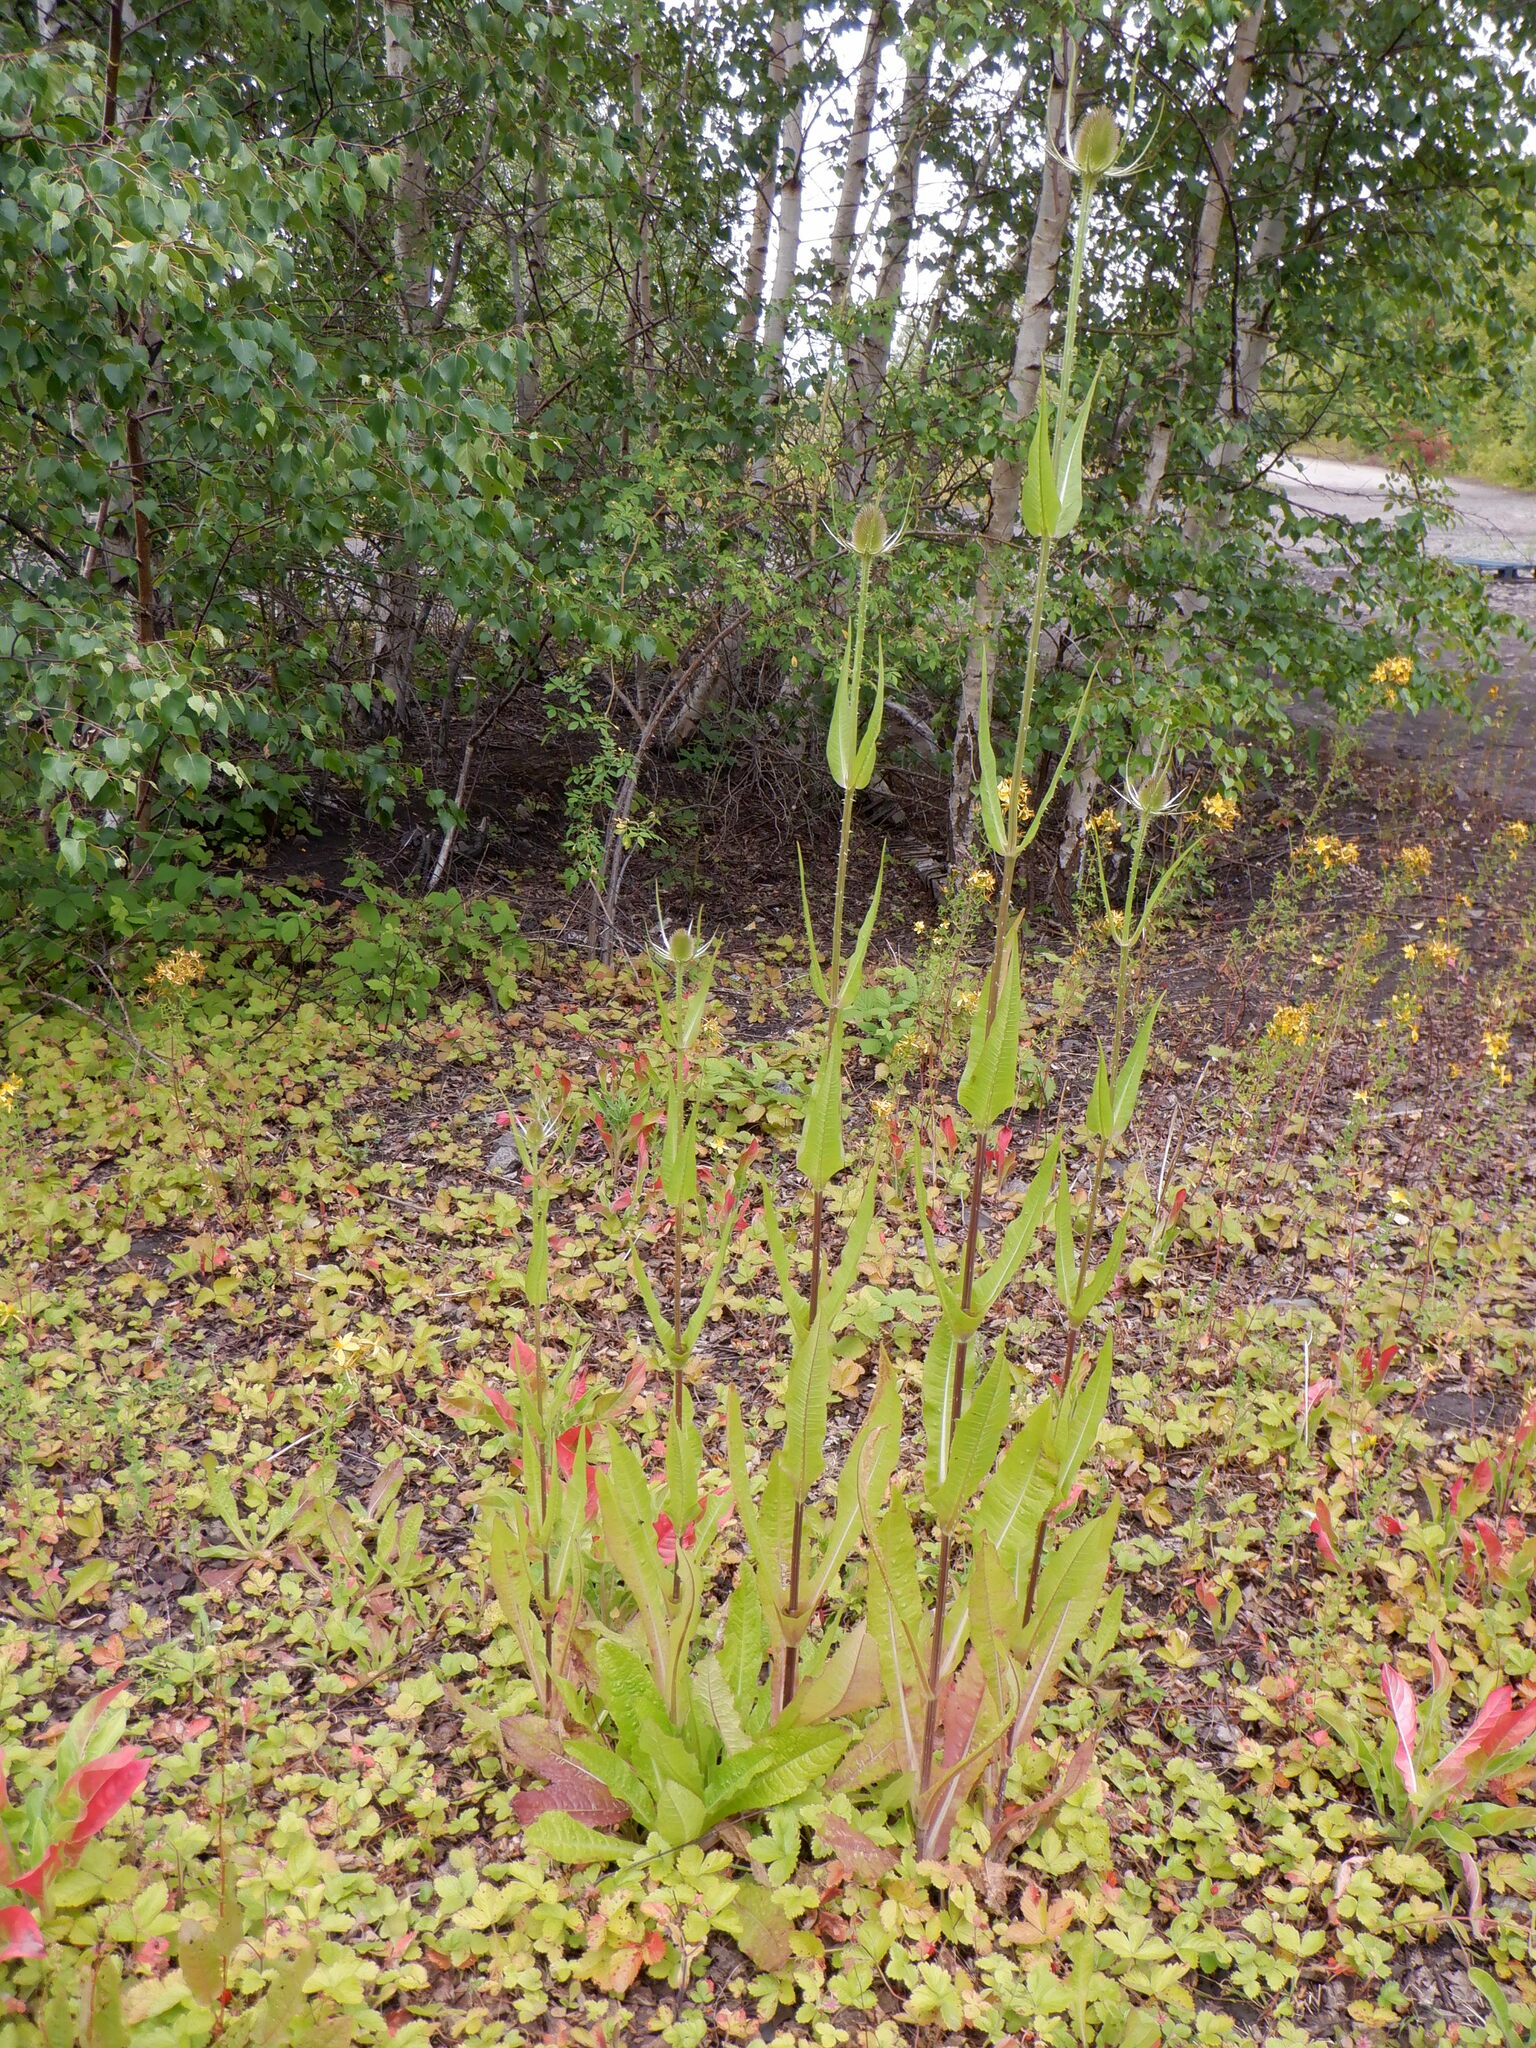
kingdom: Plantae
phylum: Tracheophyta
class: Magnoliopsida
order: Dipsacales
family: Caprifoliaceae
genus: Dipsacus
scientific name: Dipsacus fullonum
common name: Teasel
